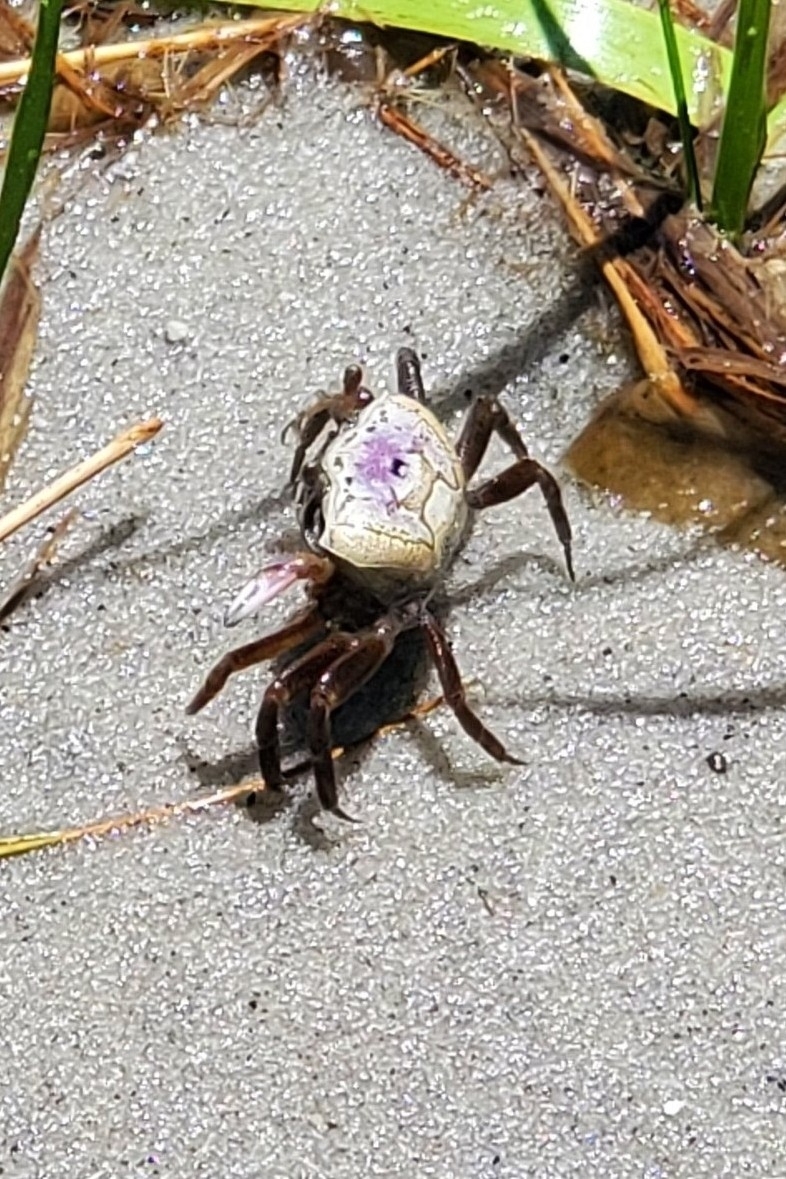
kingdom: Animalia
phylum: Arthropoda
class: Malacostraca
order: Decapoda
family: Ocypodidae
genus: Leptuca
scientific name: Leptuca pugilator
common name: Atlantic sand fiddler crab
